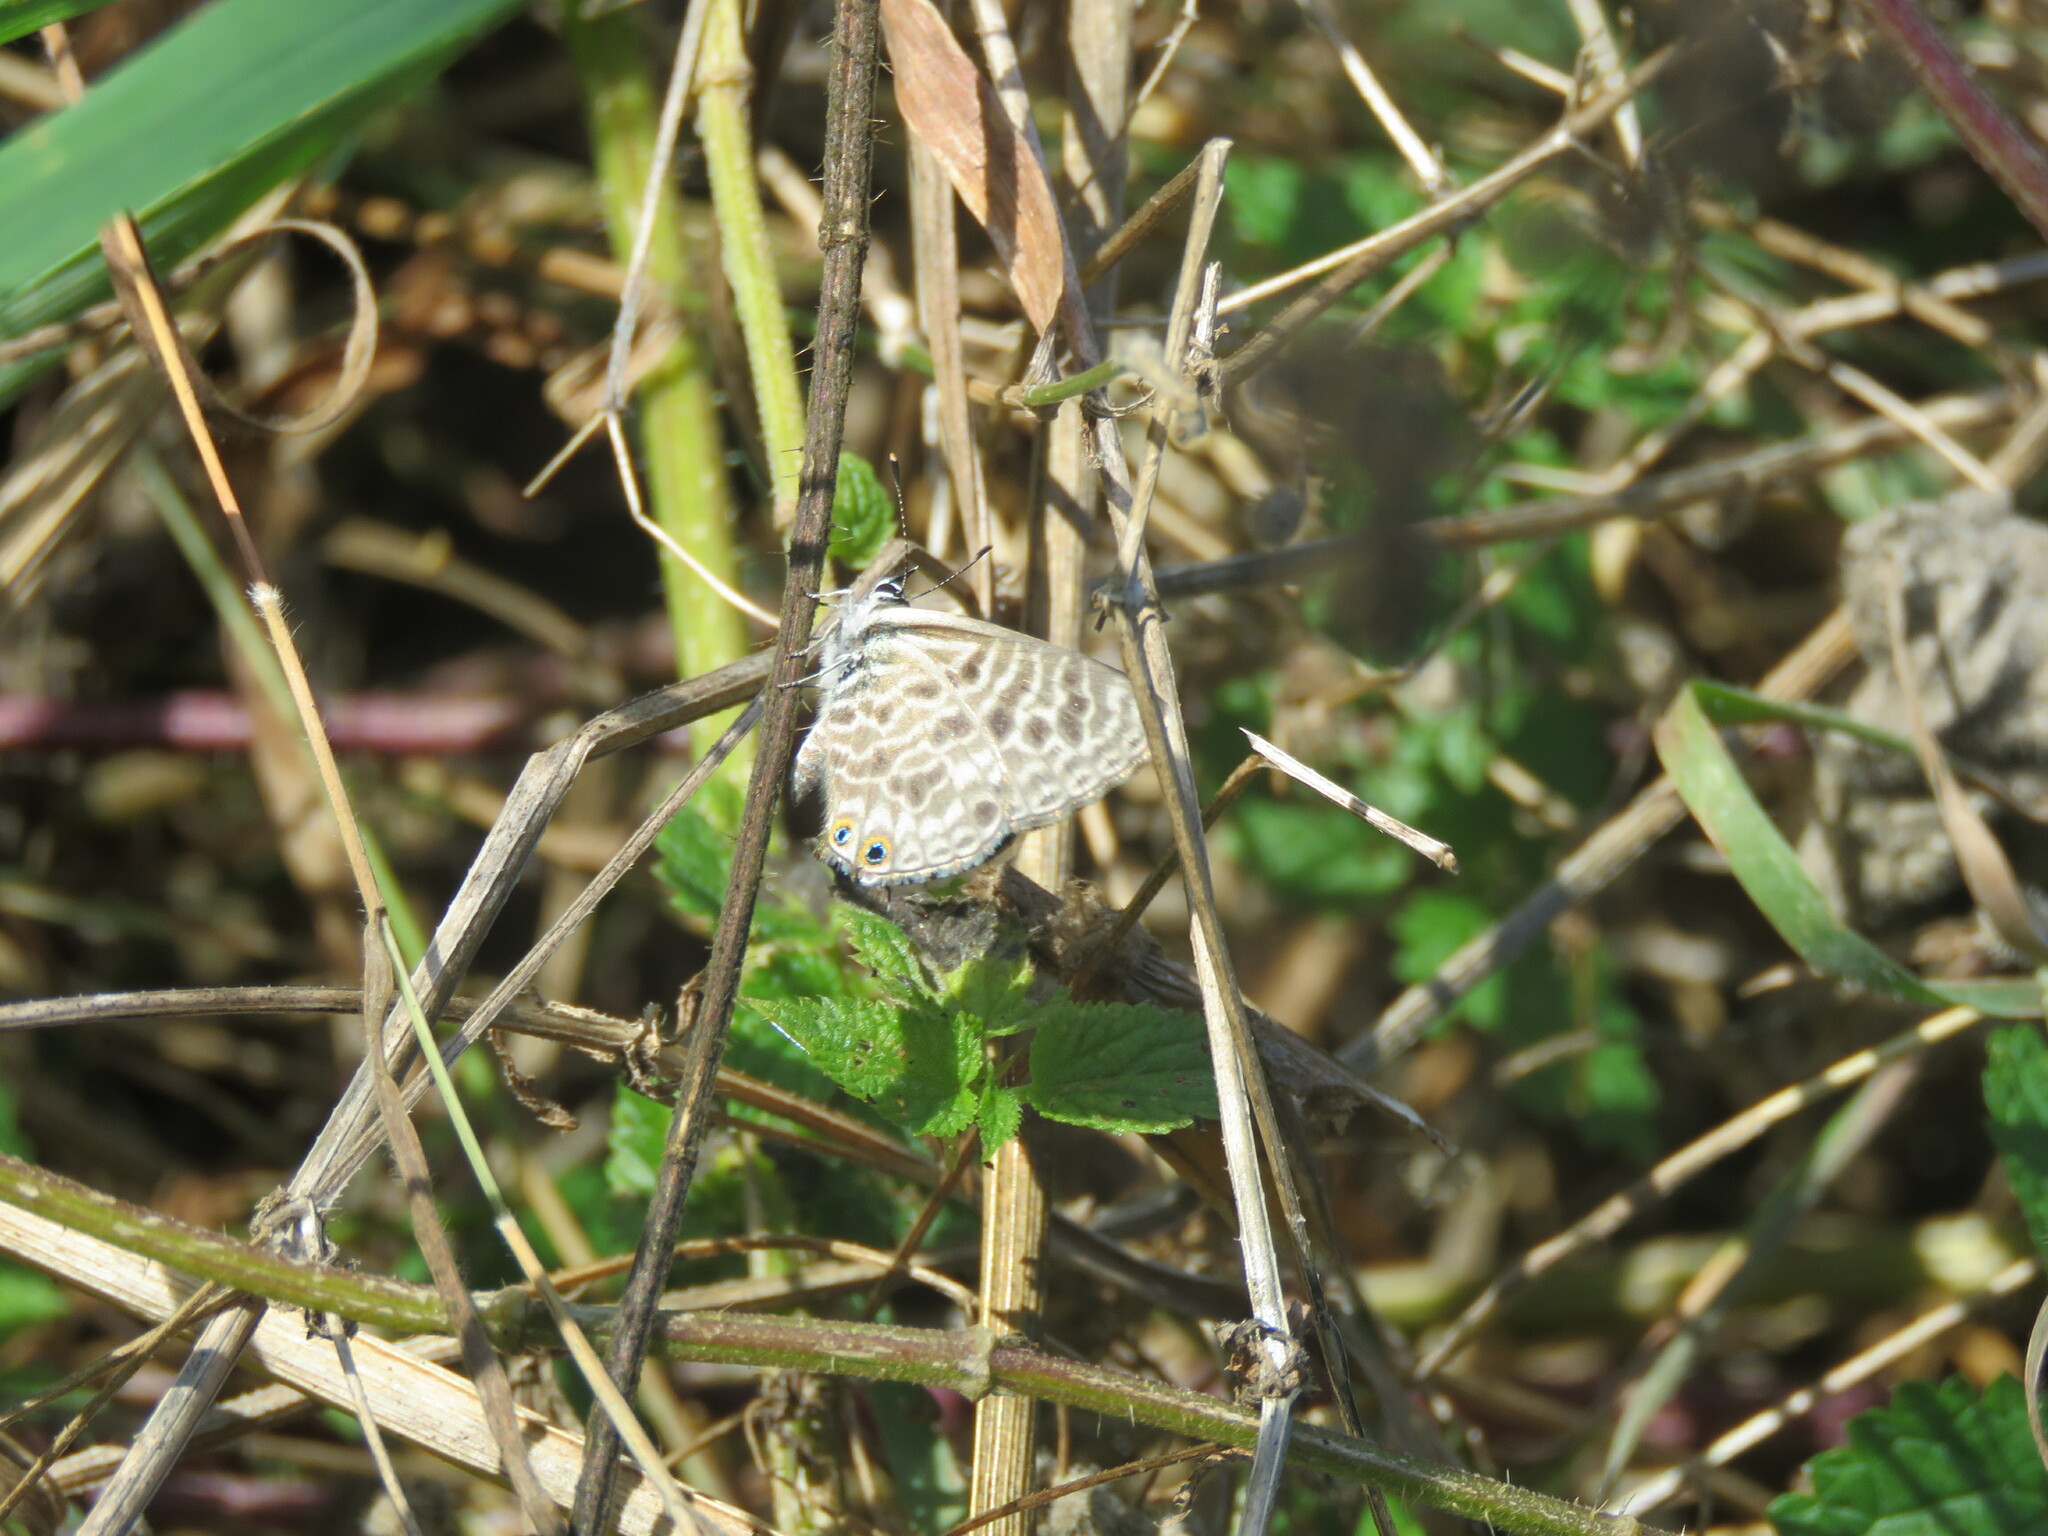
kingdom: Animalia
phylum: Arthropoda
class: Insecta
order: Lepidoptera
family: Lycaenidae
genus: Leptotes
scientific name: Leptotes pirithous
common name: Lang's short-tailed blue
